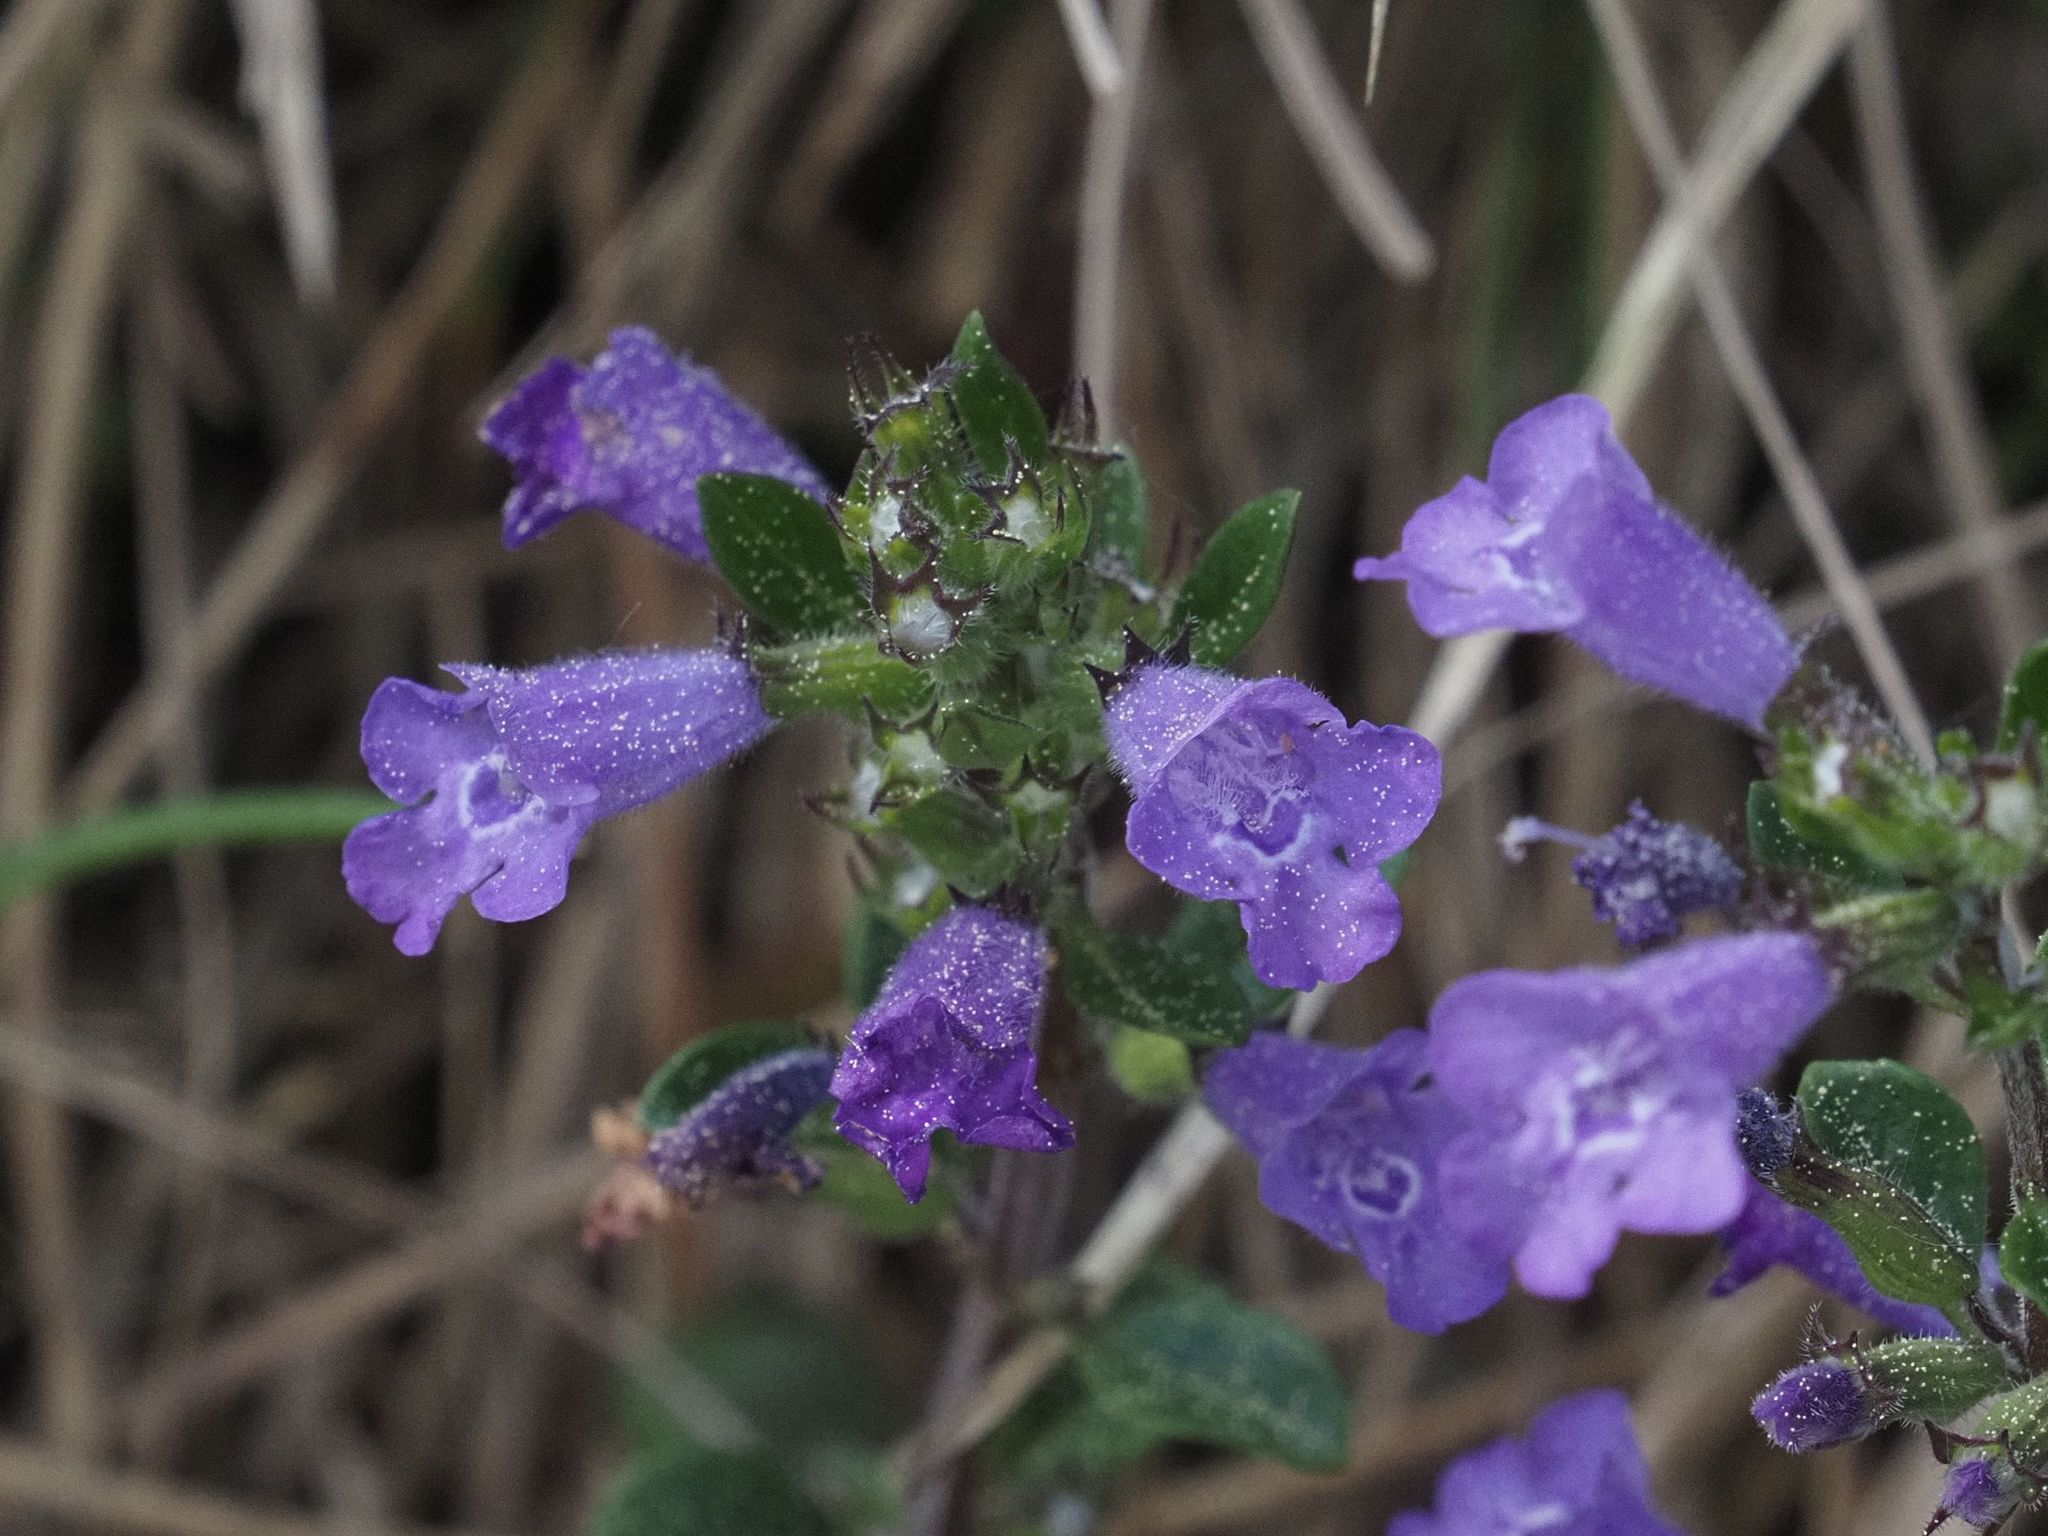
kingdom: Plantae
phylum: Tracheophyta
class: Magnoliopsida
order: Lamiales
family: Lamiaceae
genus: Clinopodium
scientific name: Clinopodium alpinum
